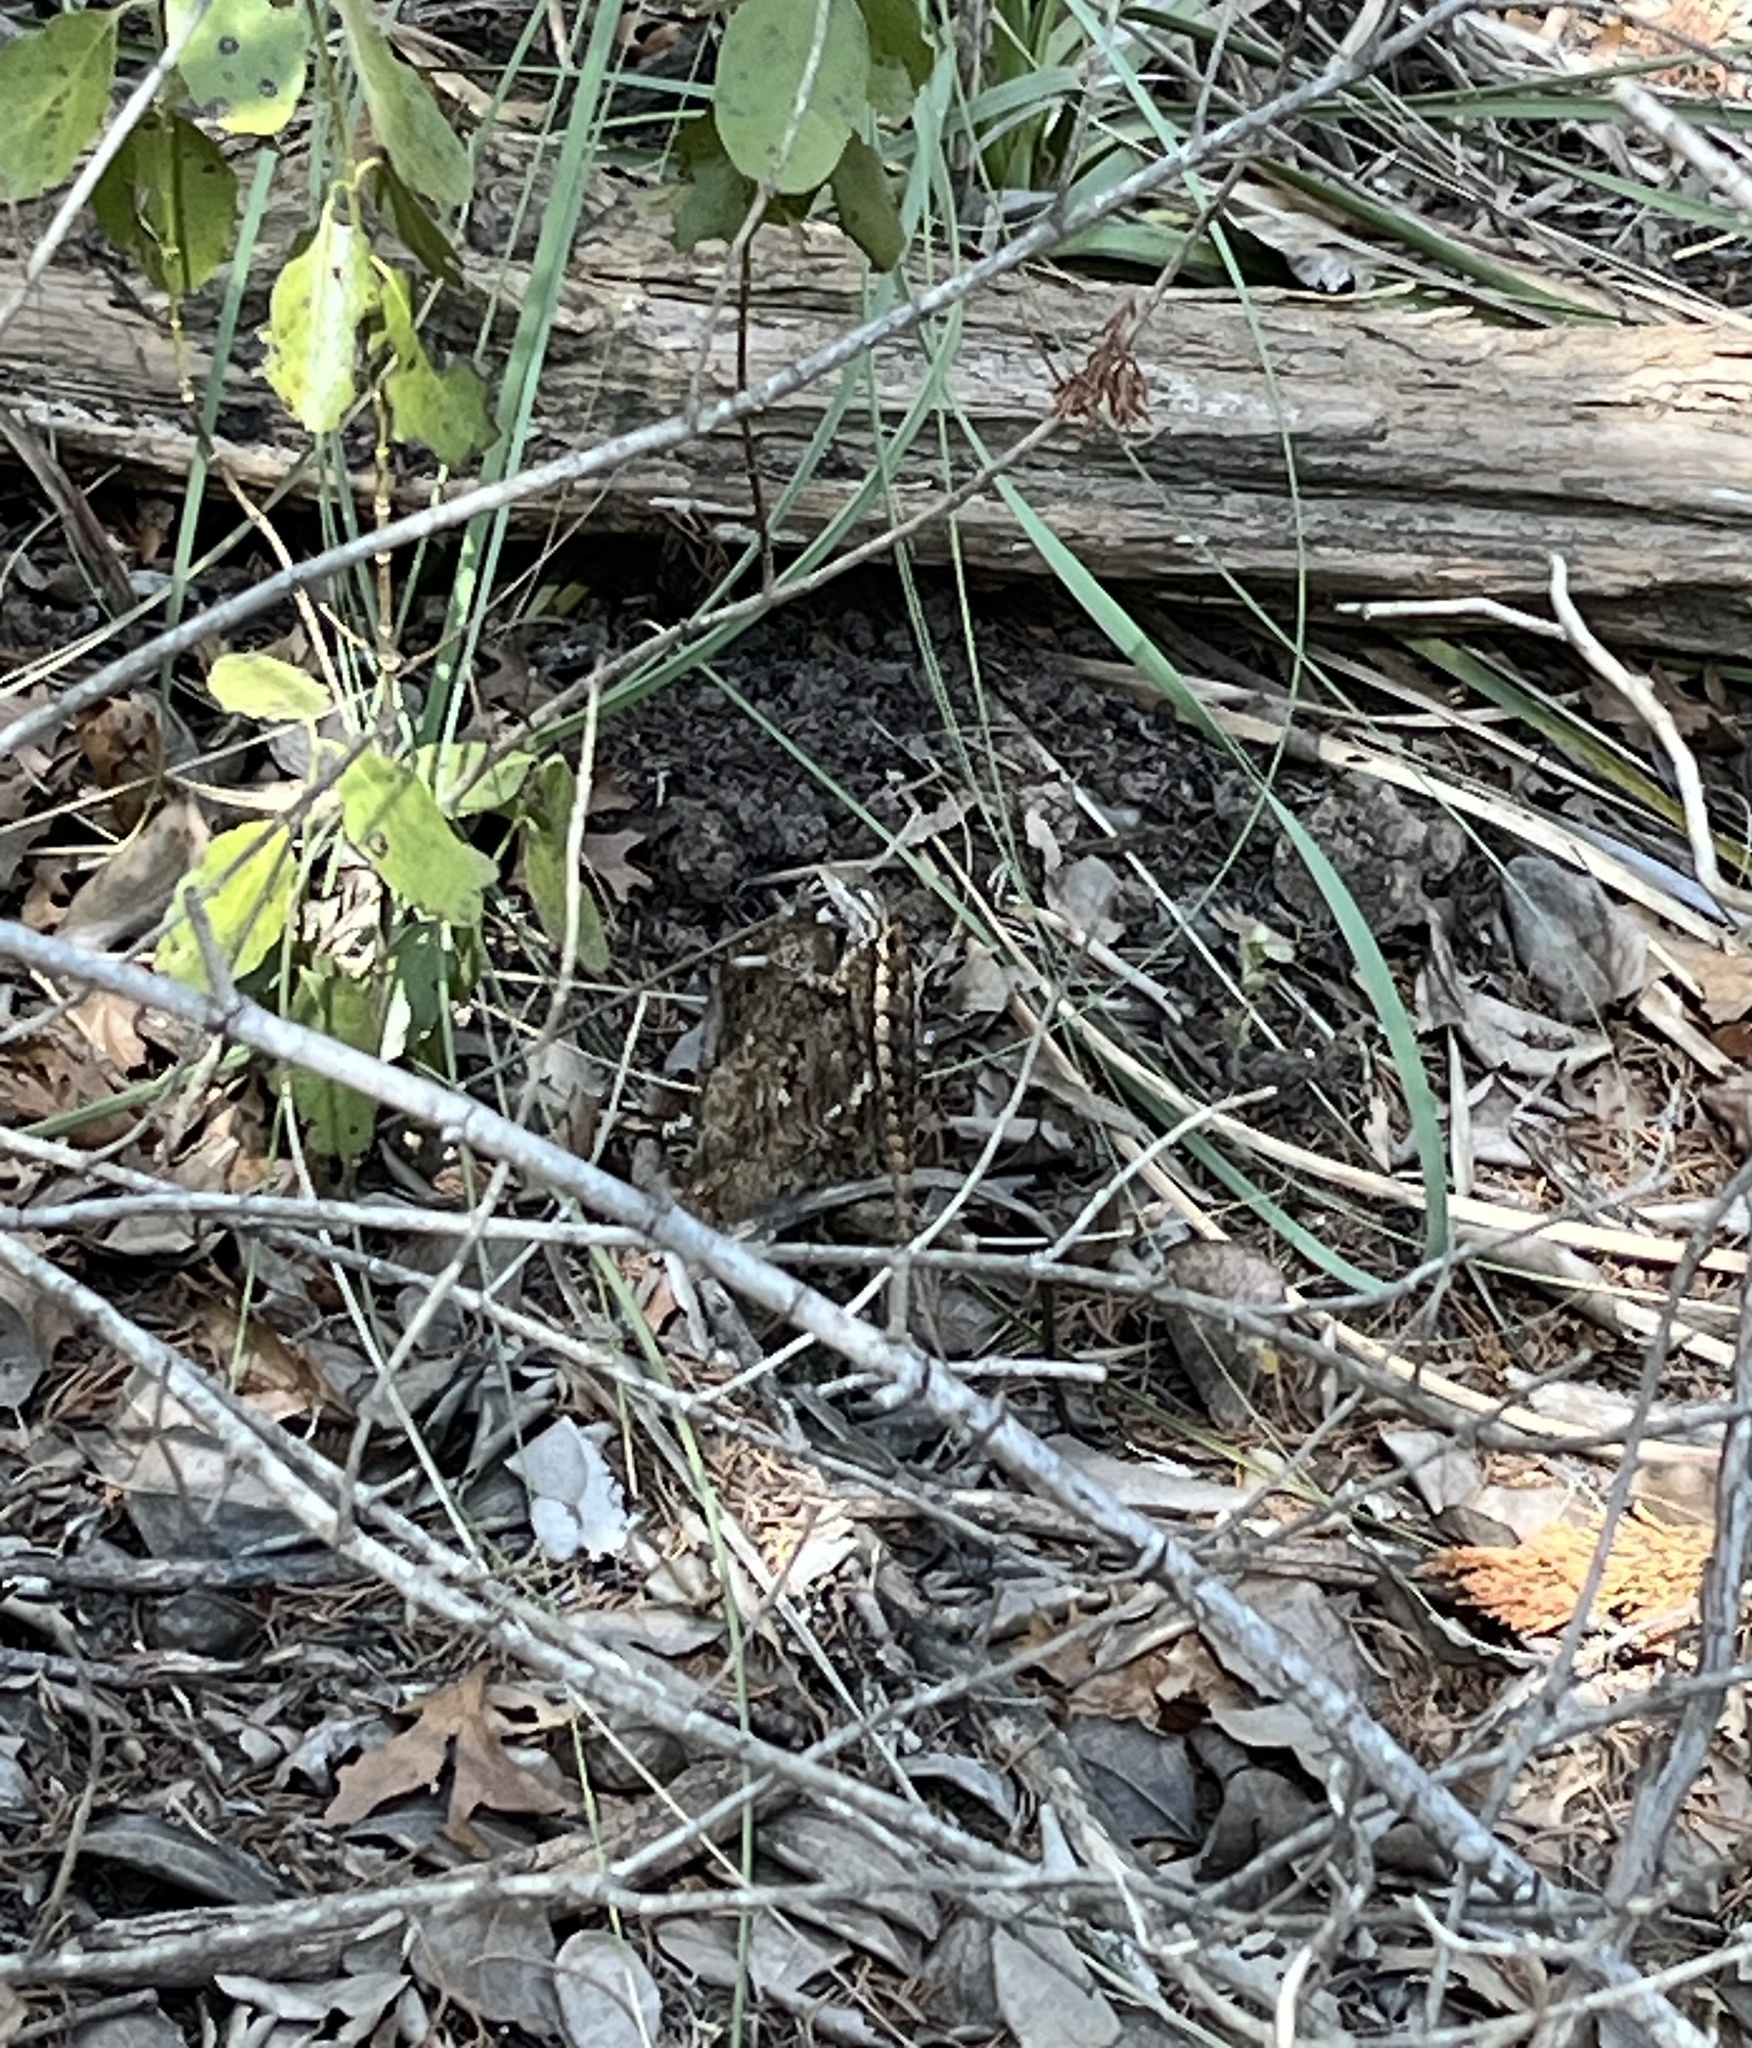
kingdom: Animalia
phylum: Chordata
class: Squamata
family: Phrynosomatidae
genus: Sceloporus
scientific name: Sceloporus olivaceus
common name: Texas spiny lizard
